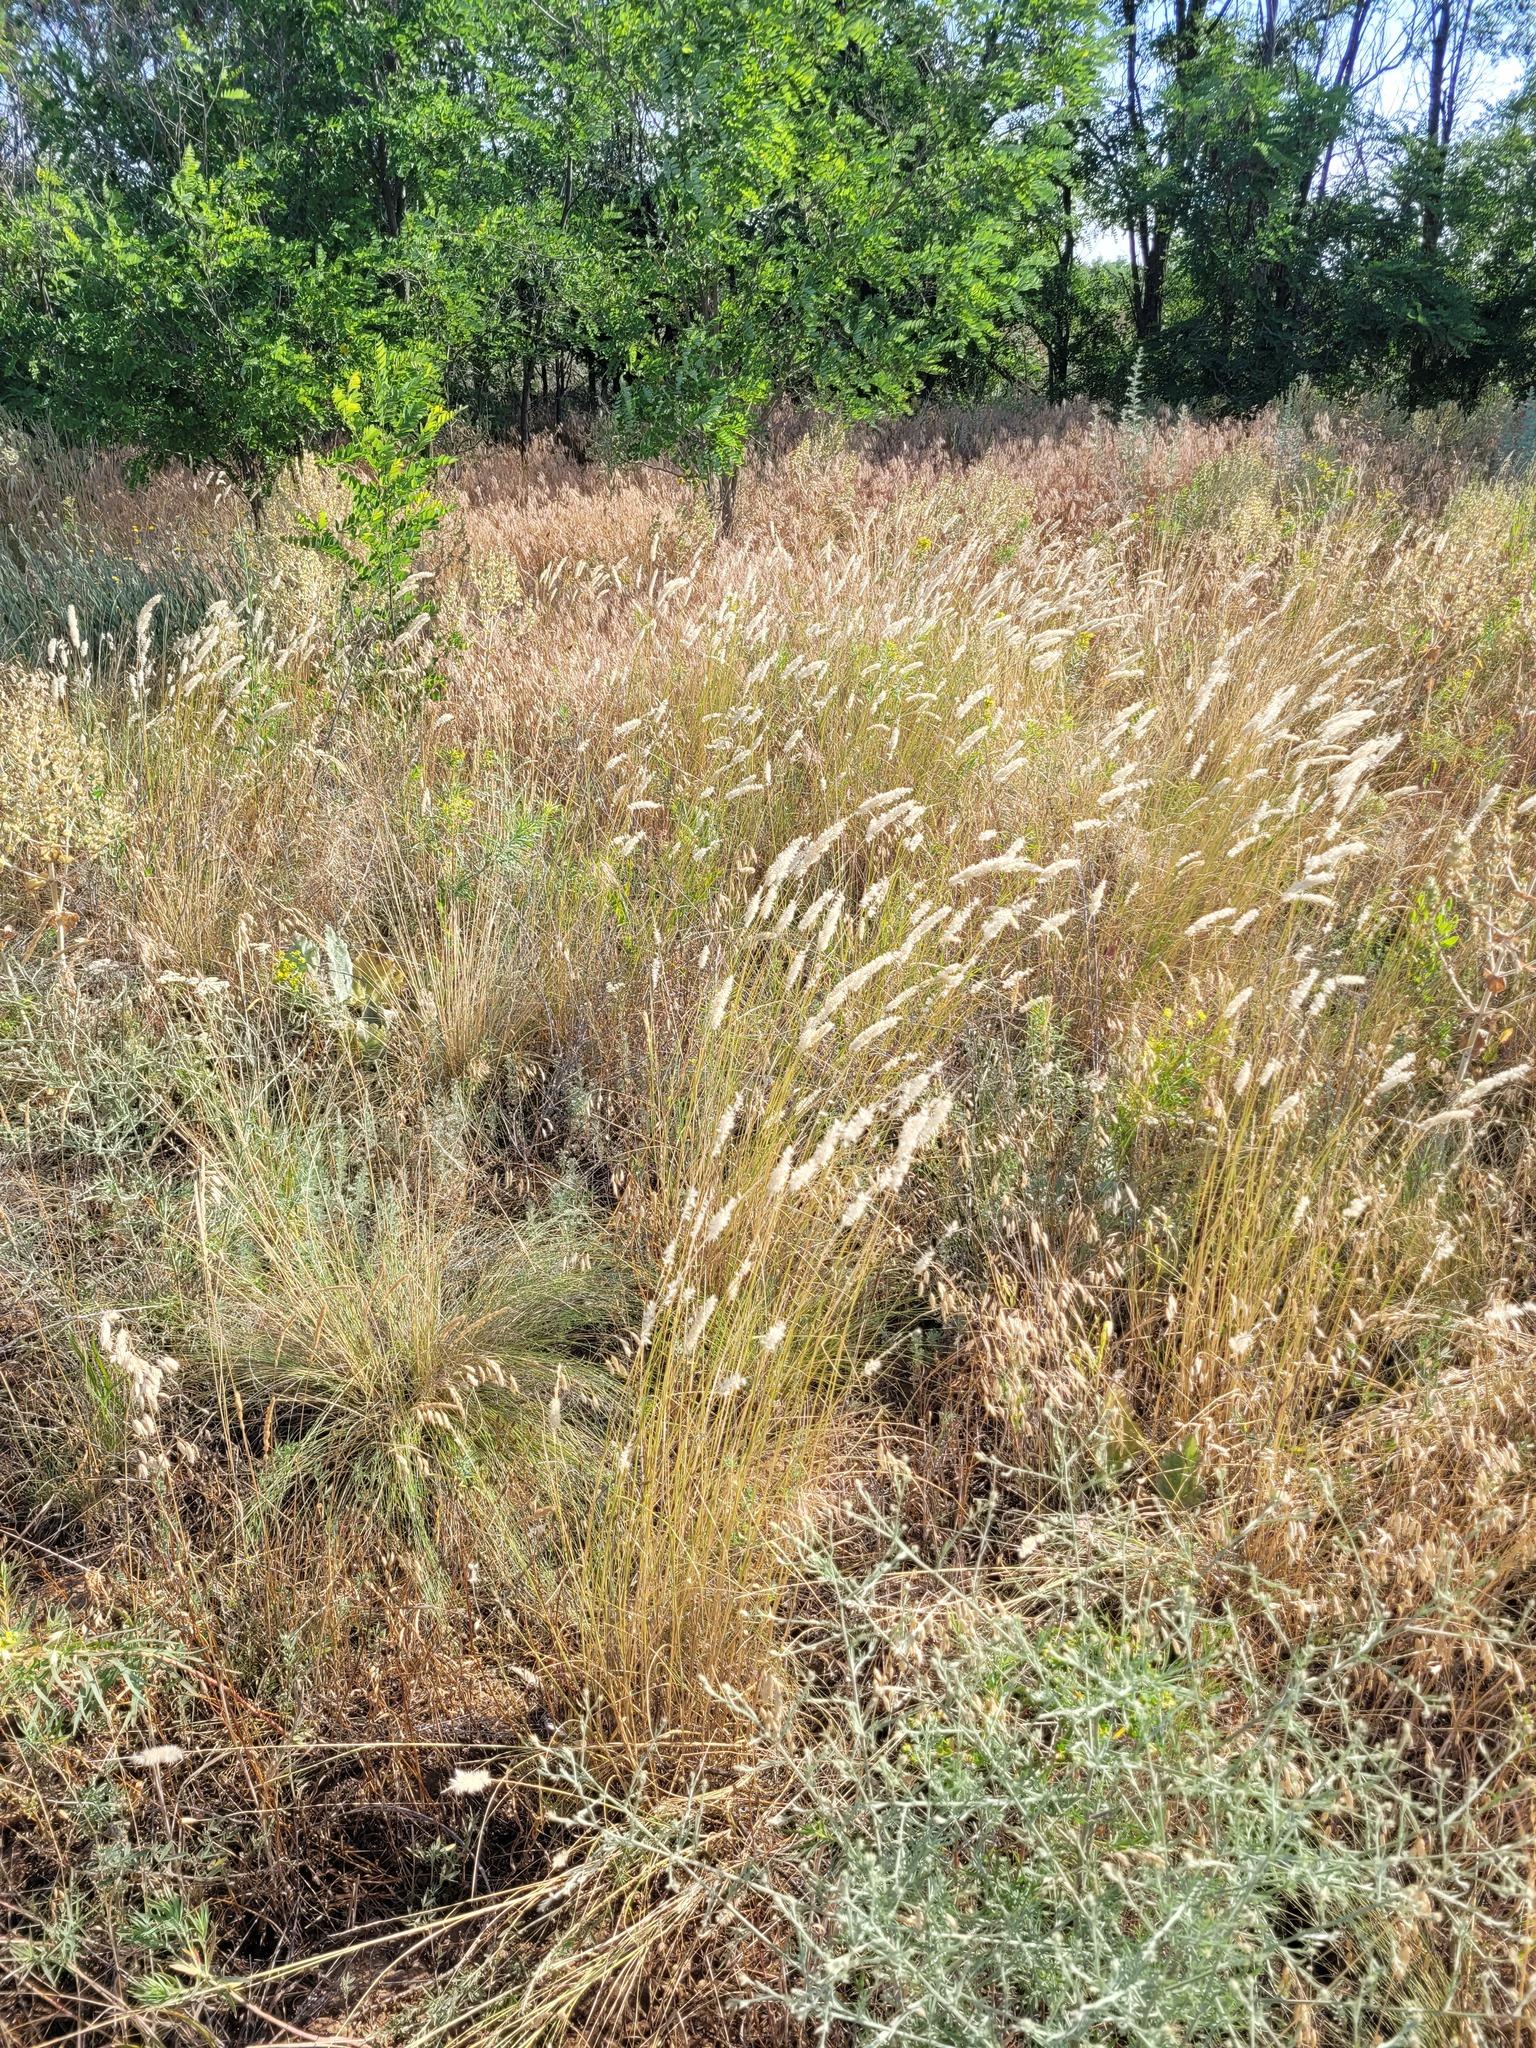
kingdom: Plantae
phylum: Tracheophyta
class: Liliopsida
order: Poales
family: Poaceae
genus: Melica
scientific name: Melica transsilvanica
